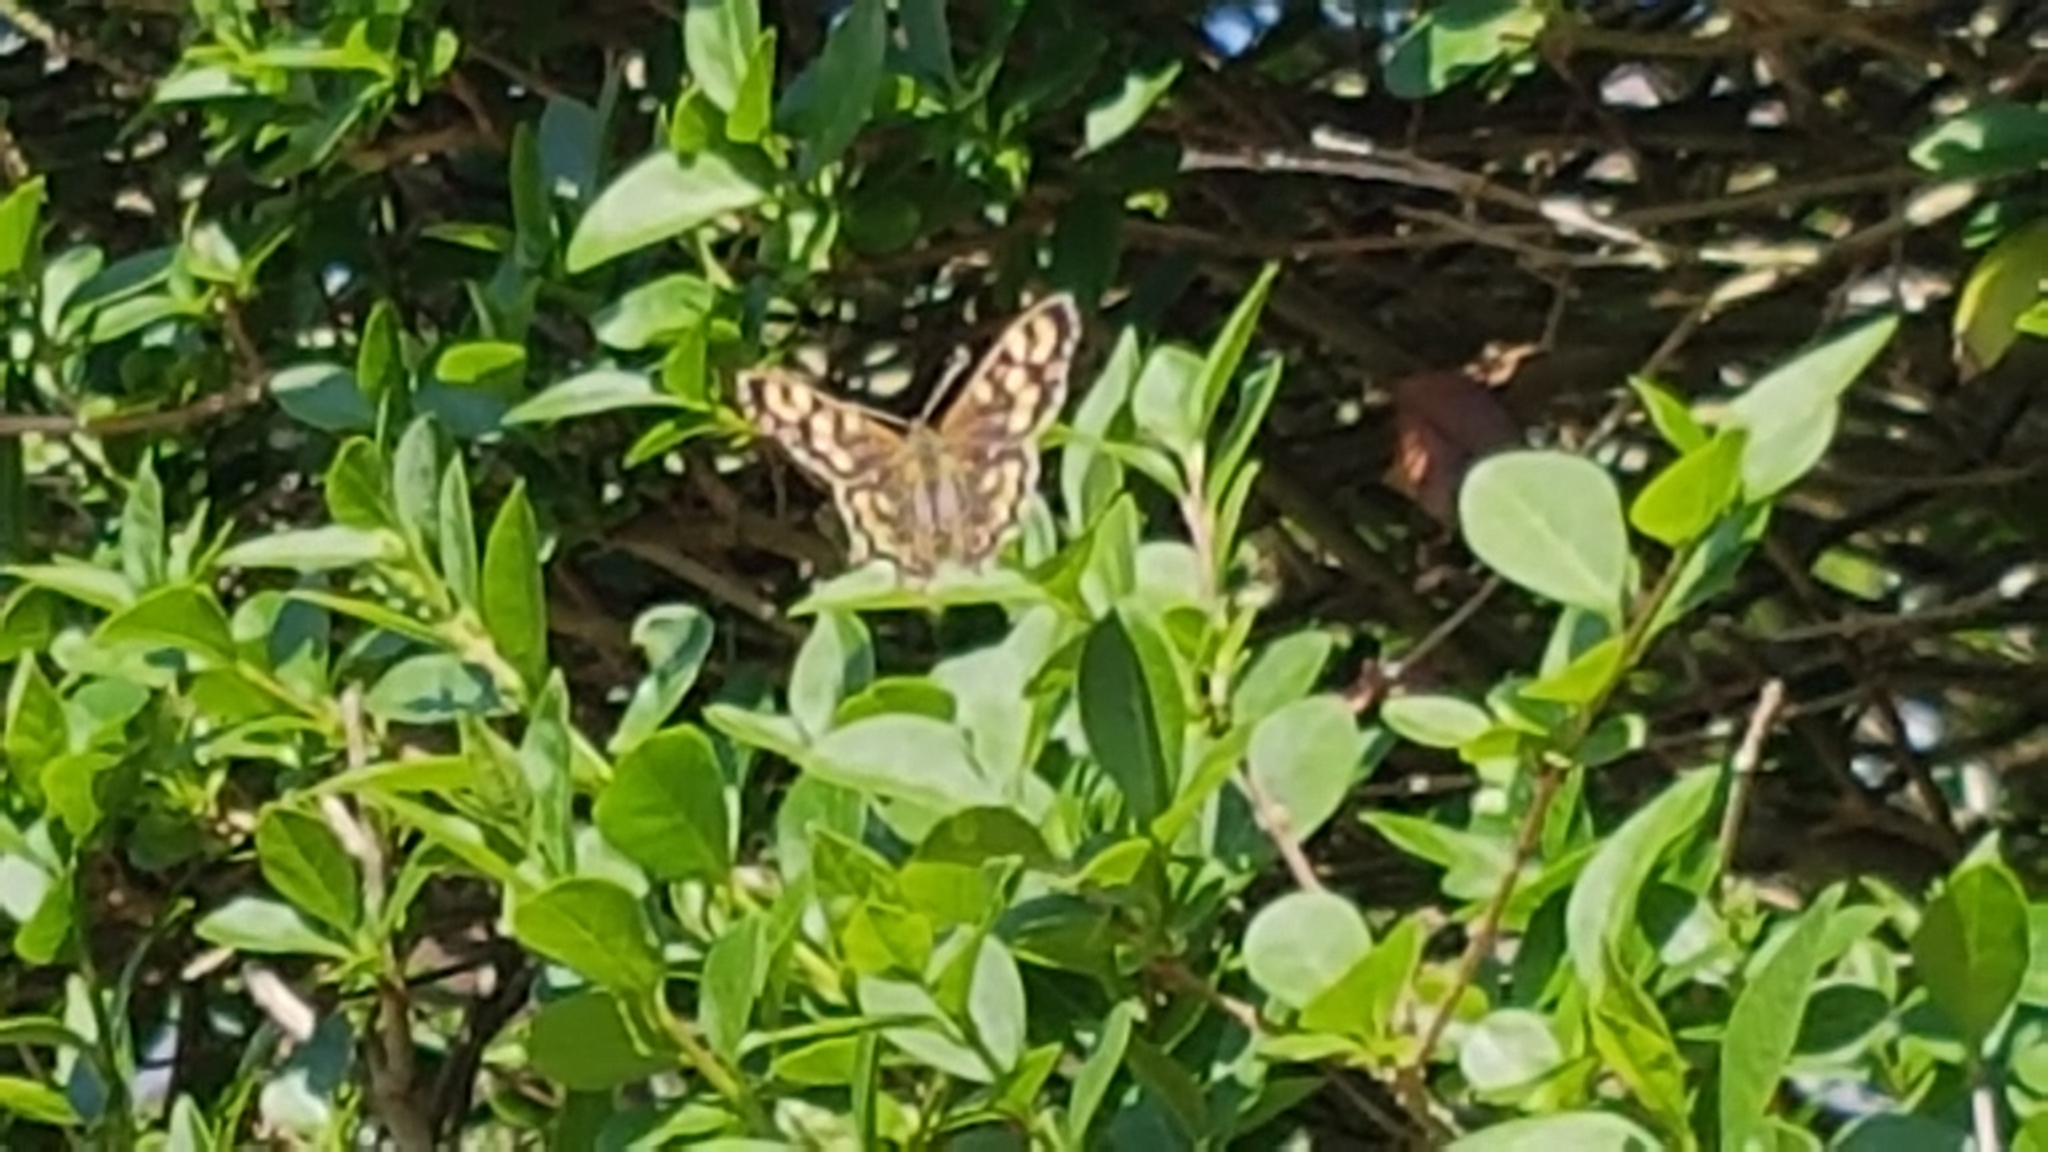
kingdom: Animalia
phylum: Arthropoda
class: Insecta
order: Lepidoptera
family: Nymphalidae
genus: Pararge
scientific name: Pararge aegeria
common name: Speckled wood
